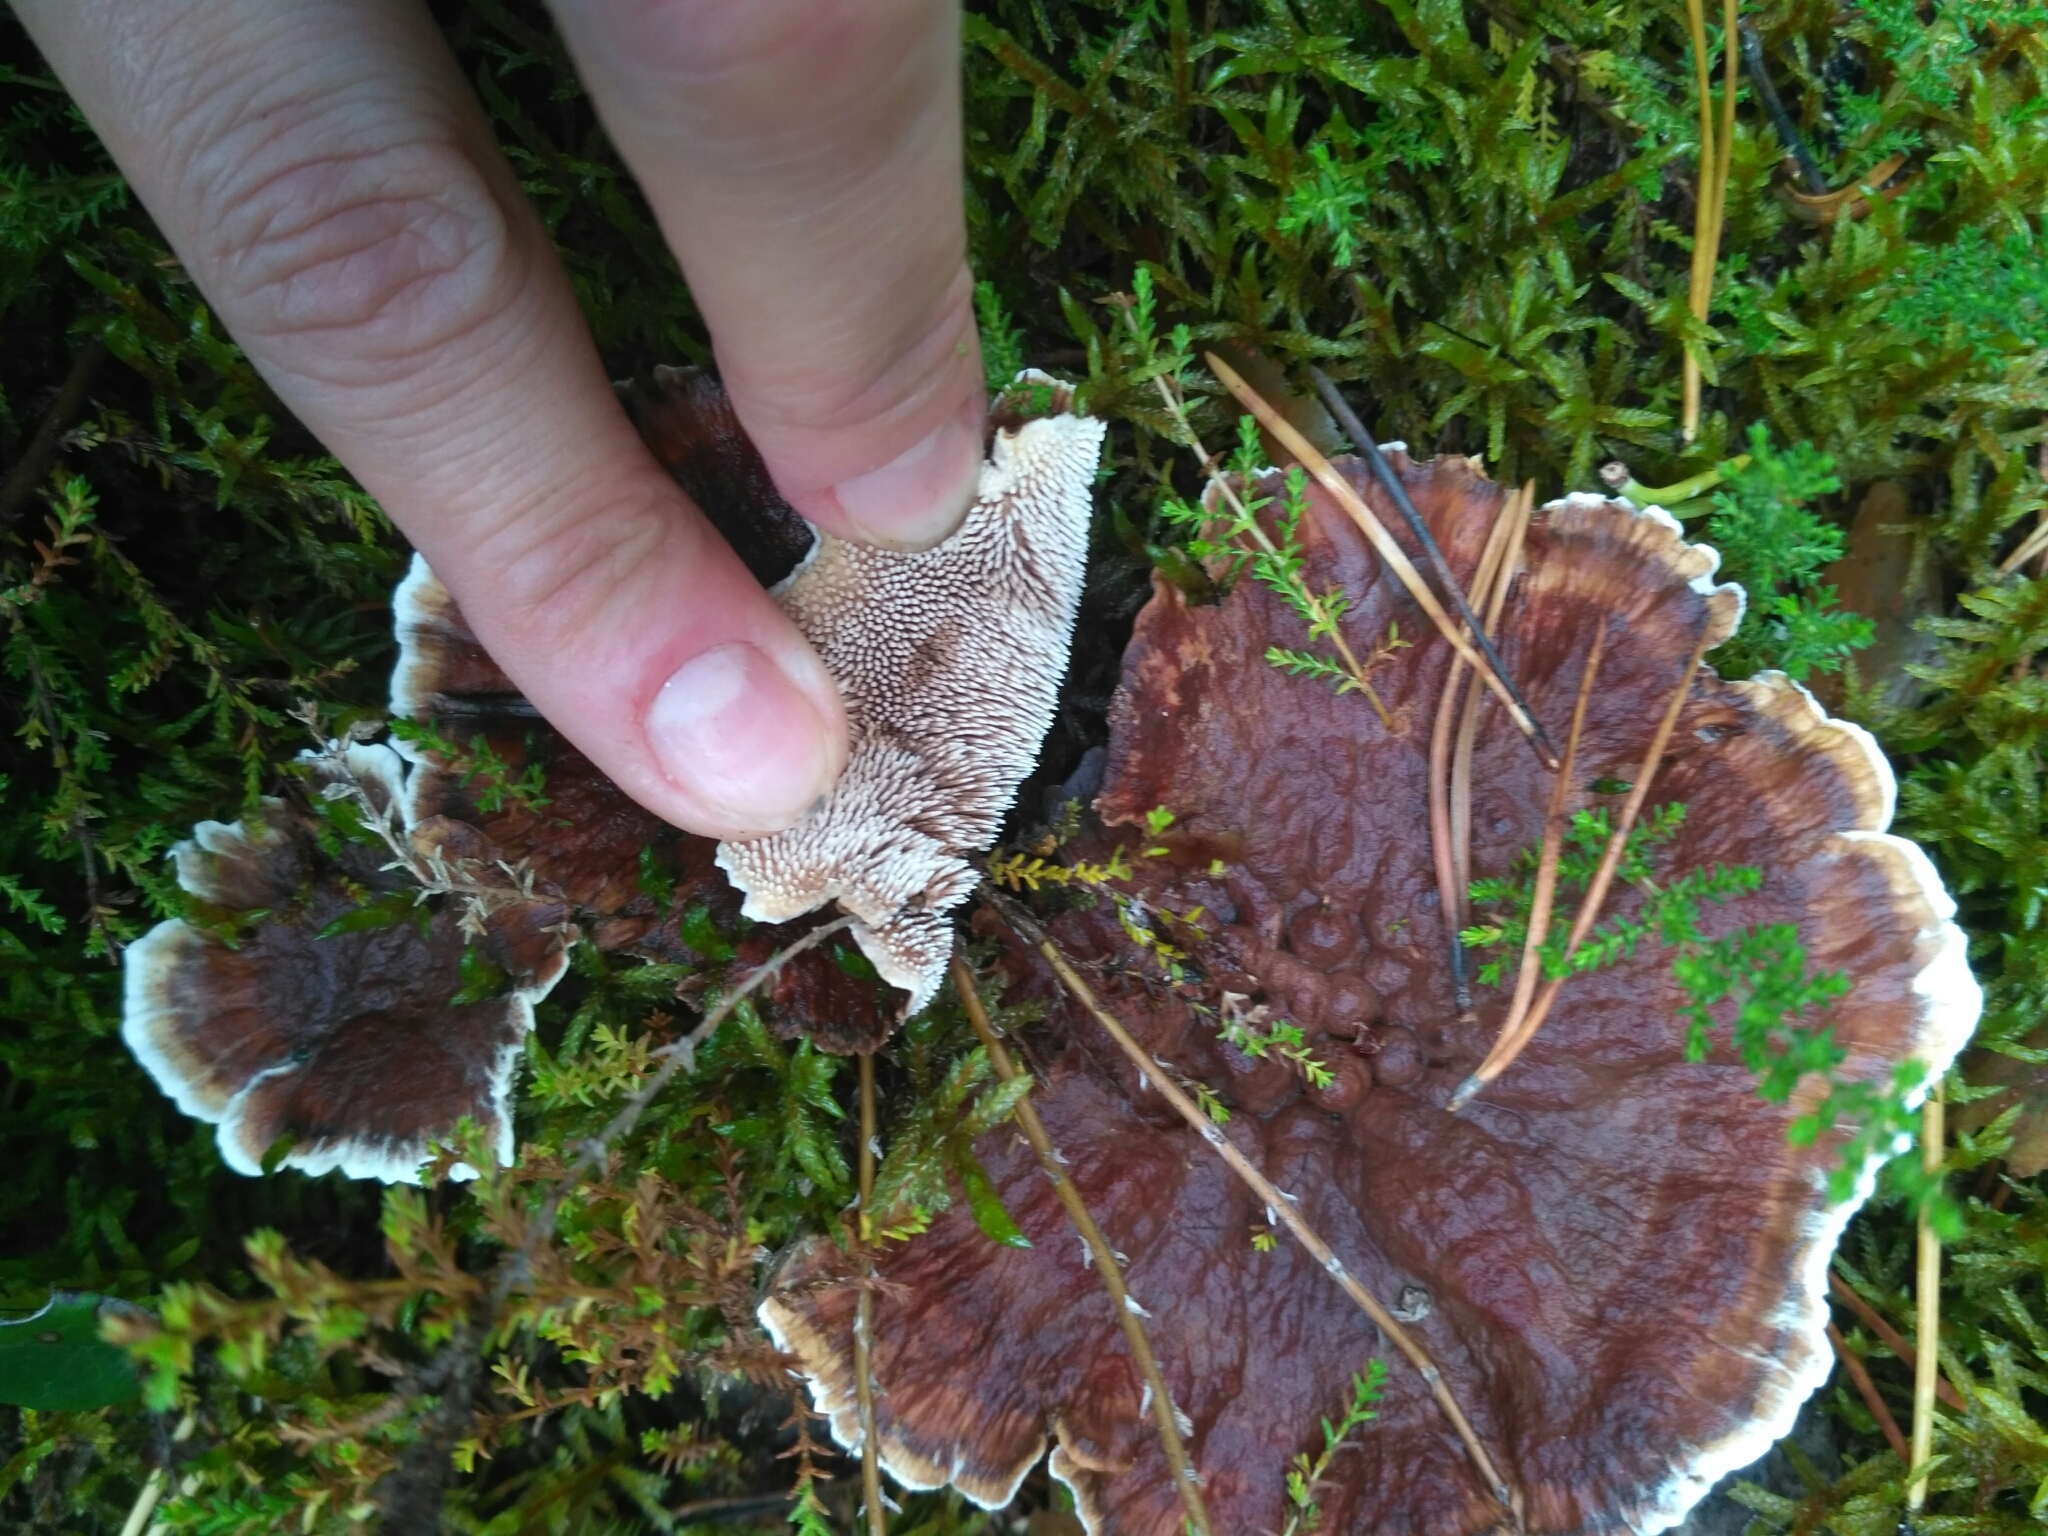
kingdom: Fungi
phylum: Basidiomycota
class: Agaricomycetes
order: Thelephorales
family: Bankeraceae
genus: Hydnellum
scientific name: Hydnellum aurantiacum
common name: Orange tooth
